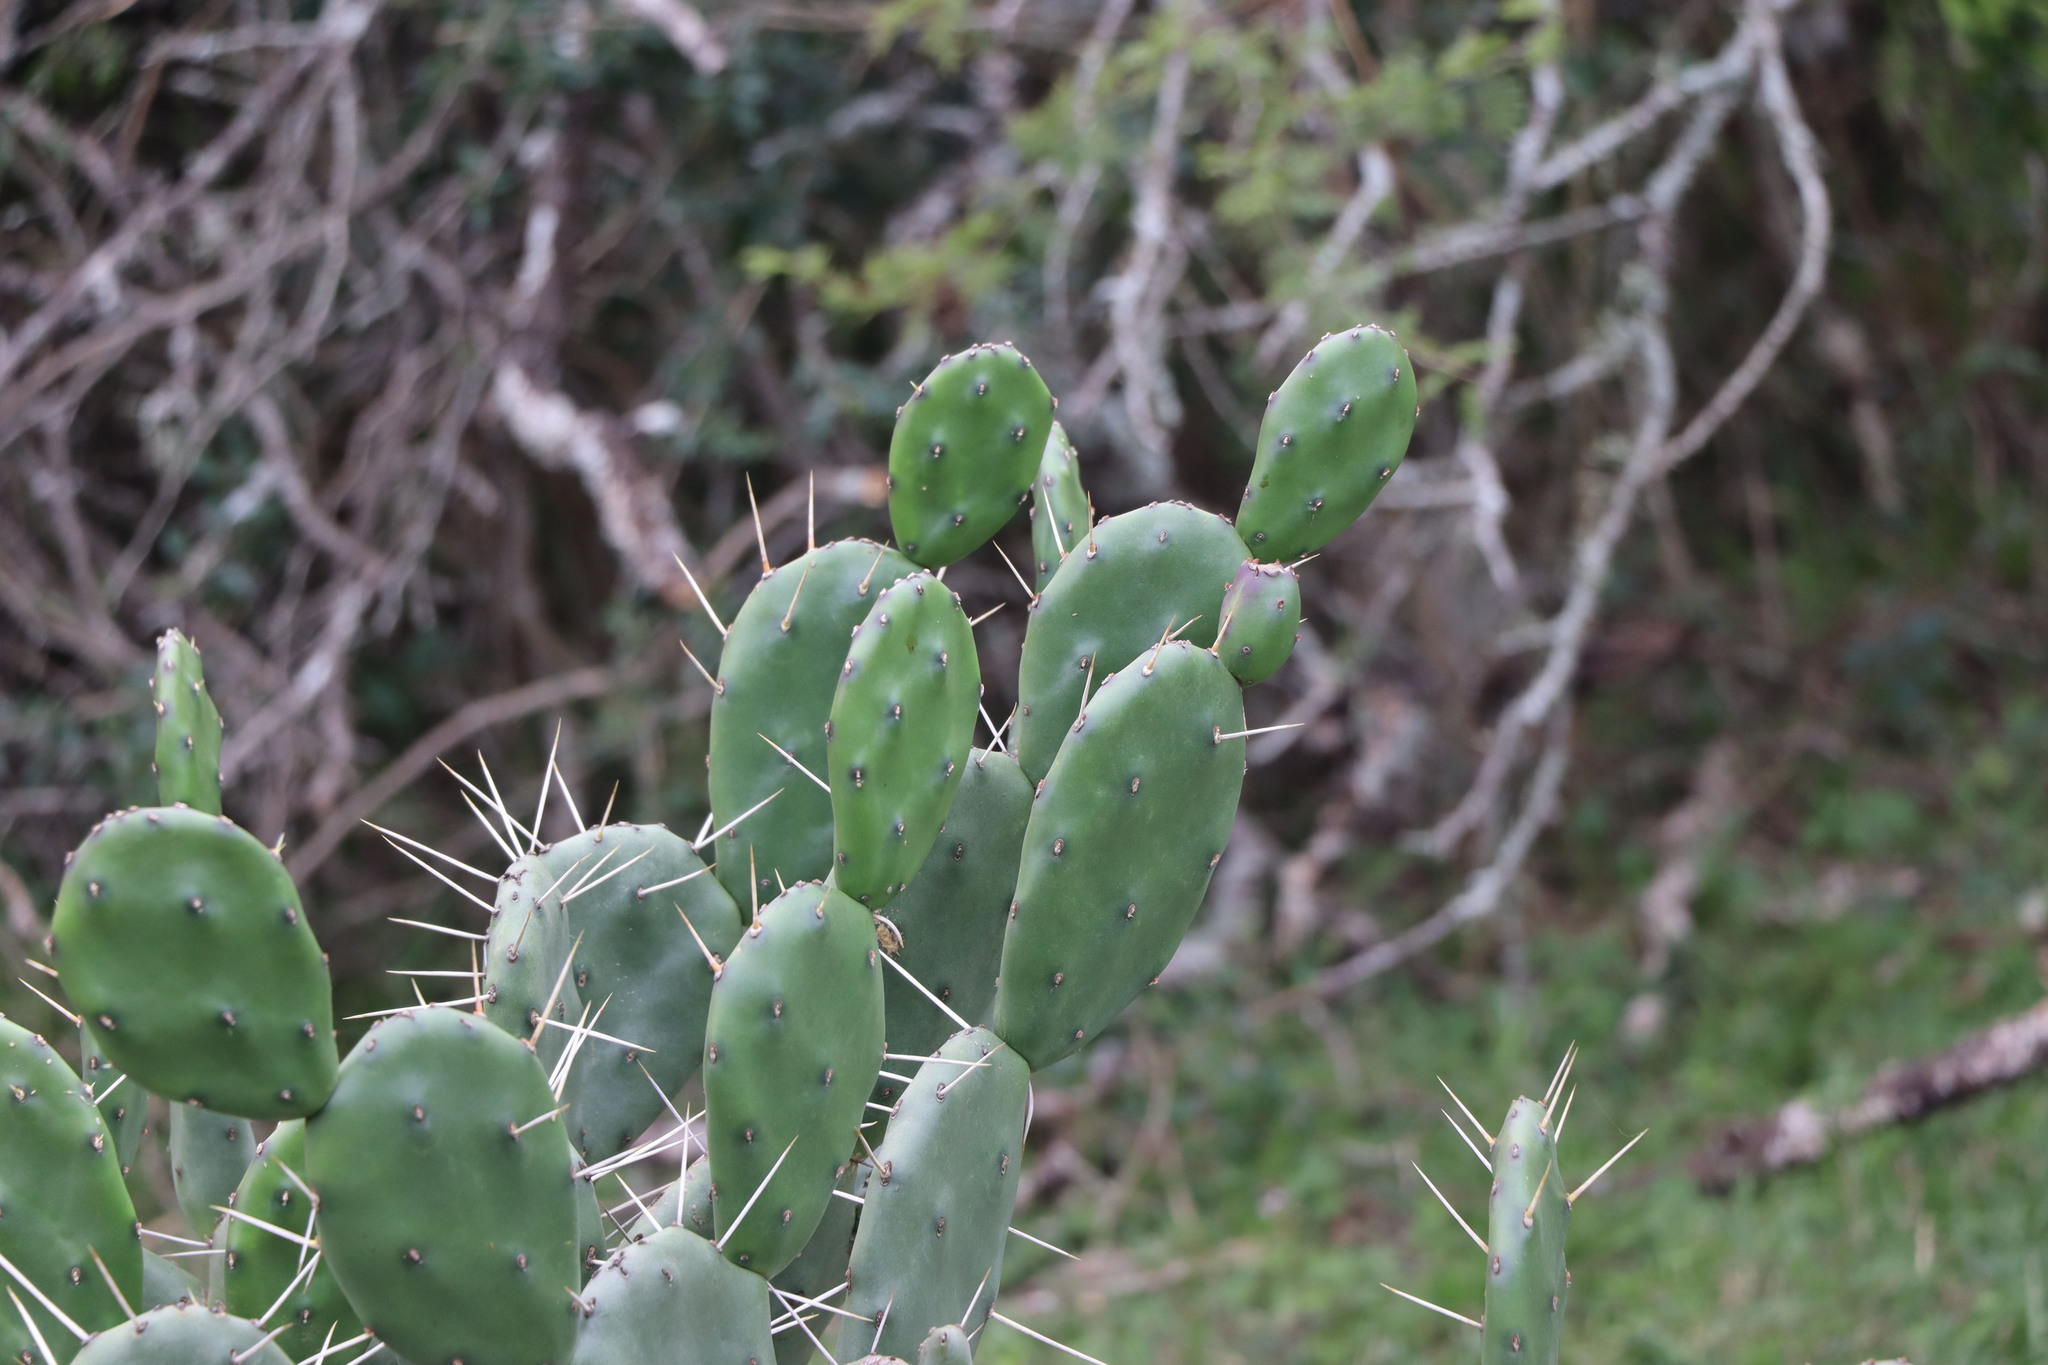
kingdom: Plantae
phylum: Tracheophyta
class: Magnoliopsida
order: Caryophyllales
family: Cactaceae
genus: Opuntia
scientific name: Opuntia elata
